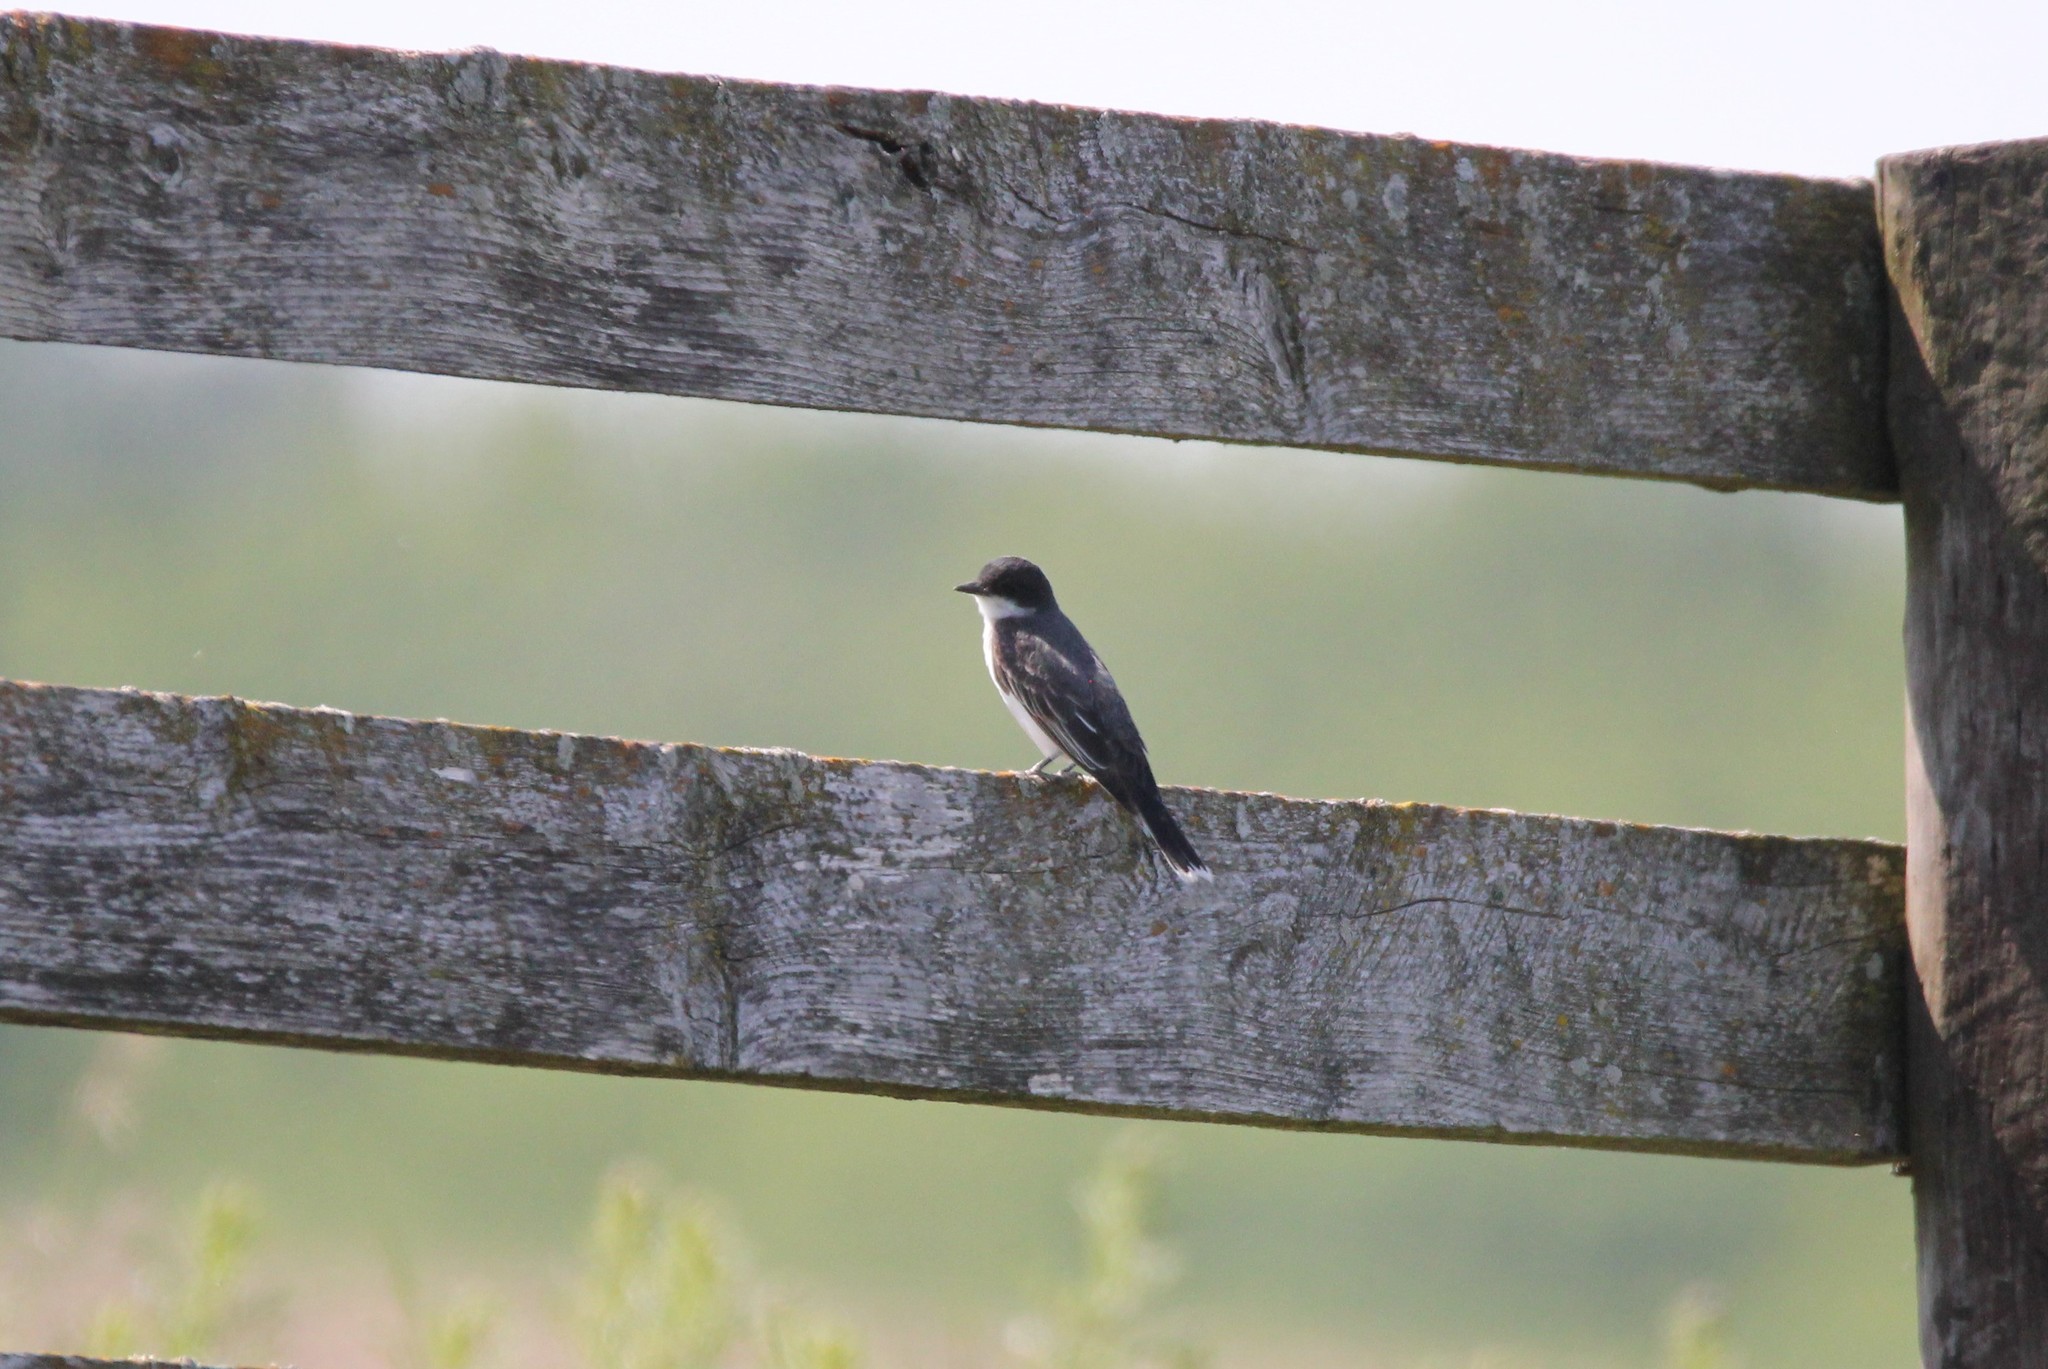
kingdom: Animalia
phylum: Chordata
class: Aves
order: Passeriformes
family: Tyrannidae
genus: Tyrannus
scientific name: Tyrannus tyrannus
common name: Eastern kingbird
